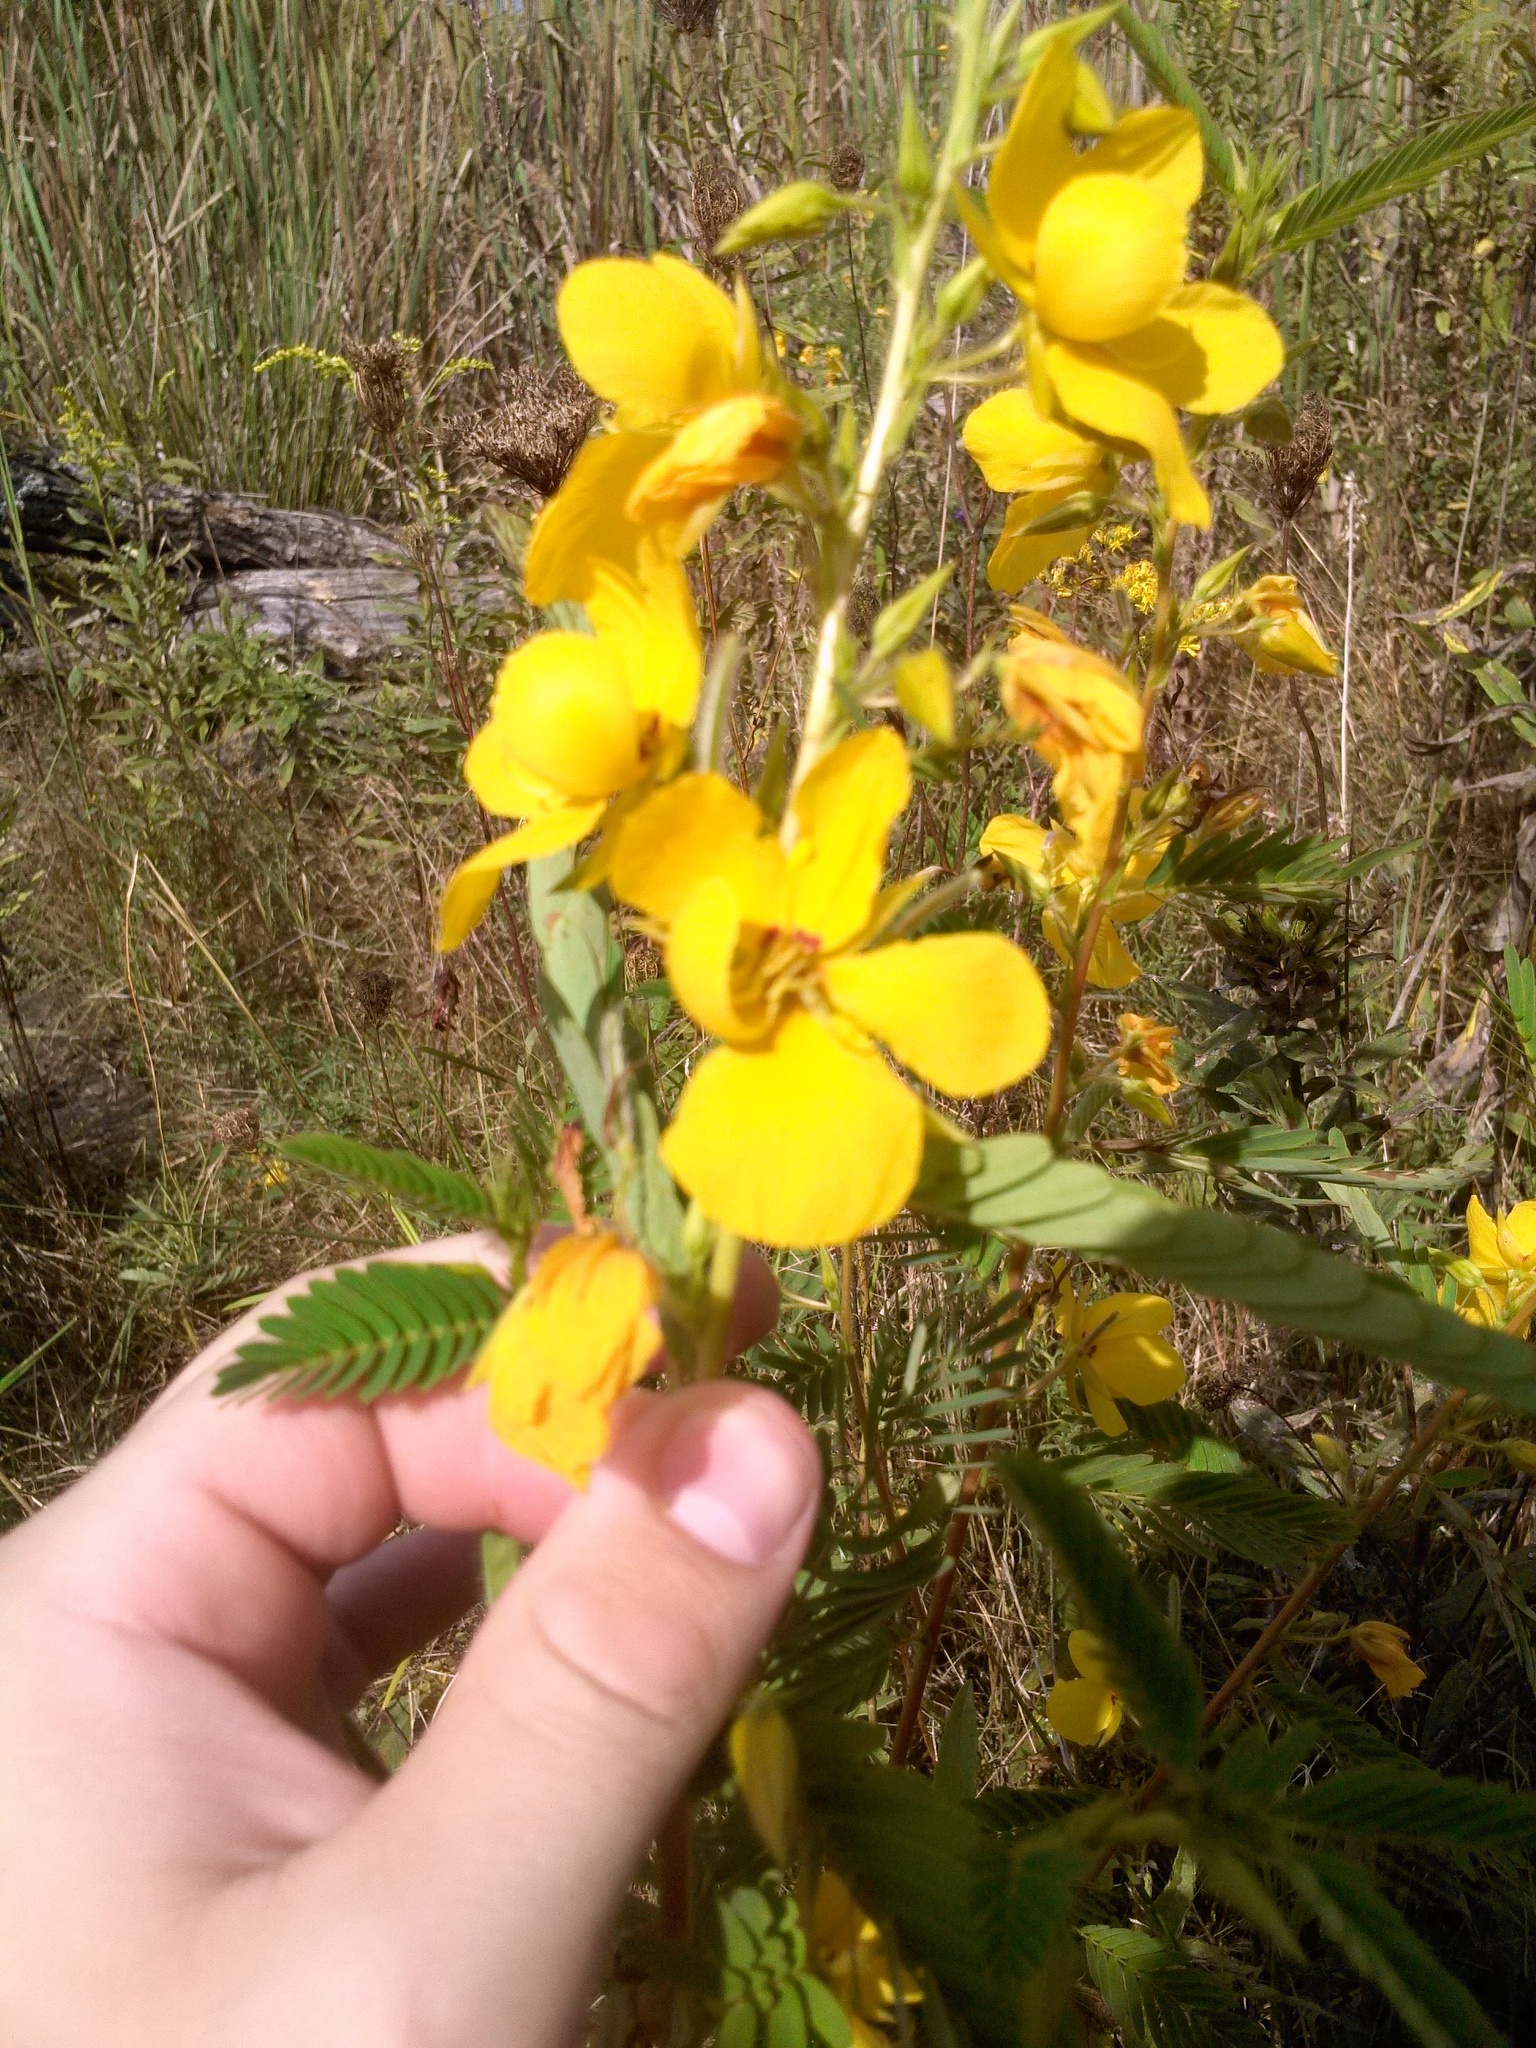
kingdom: Plantae
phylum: Tracheophyta
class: Magnoliopsida
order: Fabales
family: Fabaceae
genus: Chamaecrista
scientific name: Chamaecrista fasciculata
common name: Golden cassia
